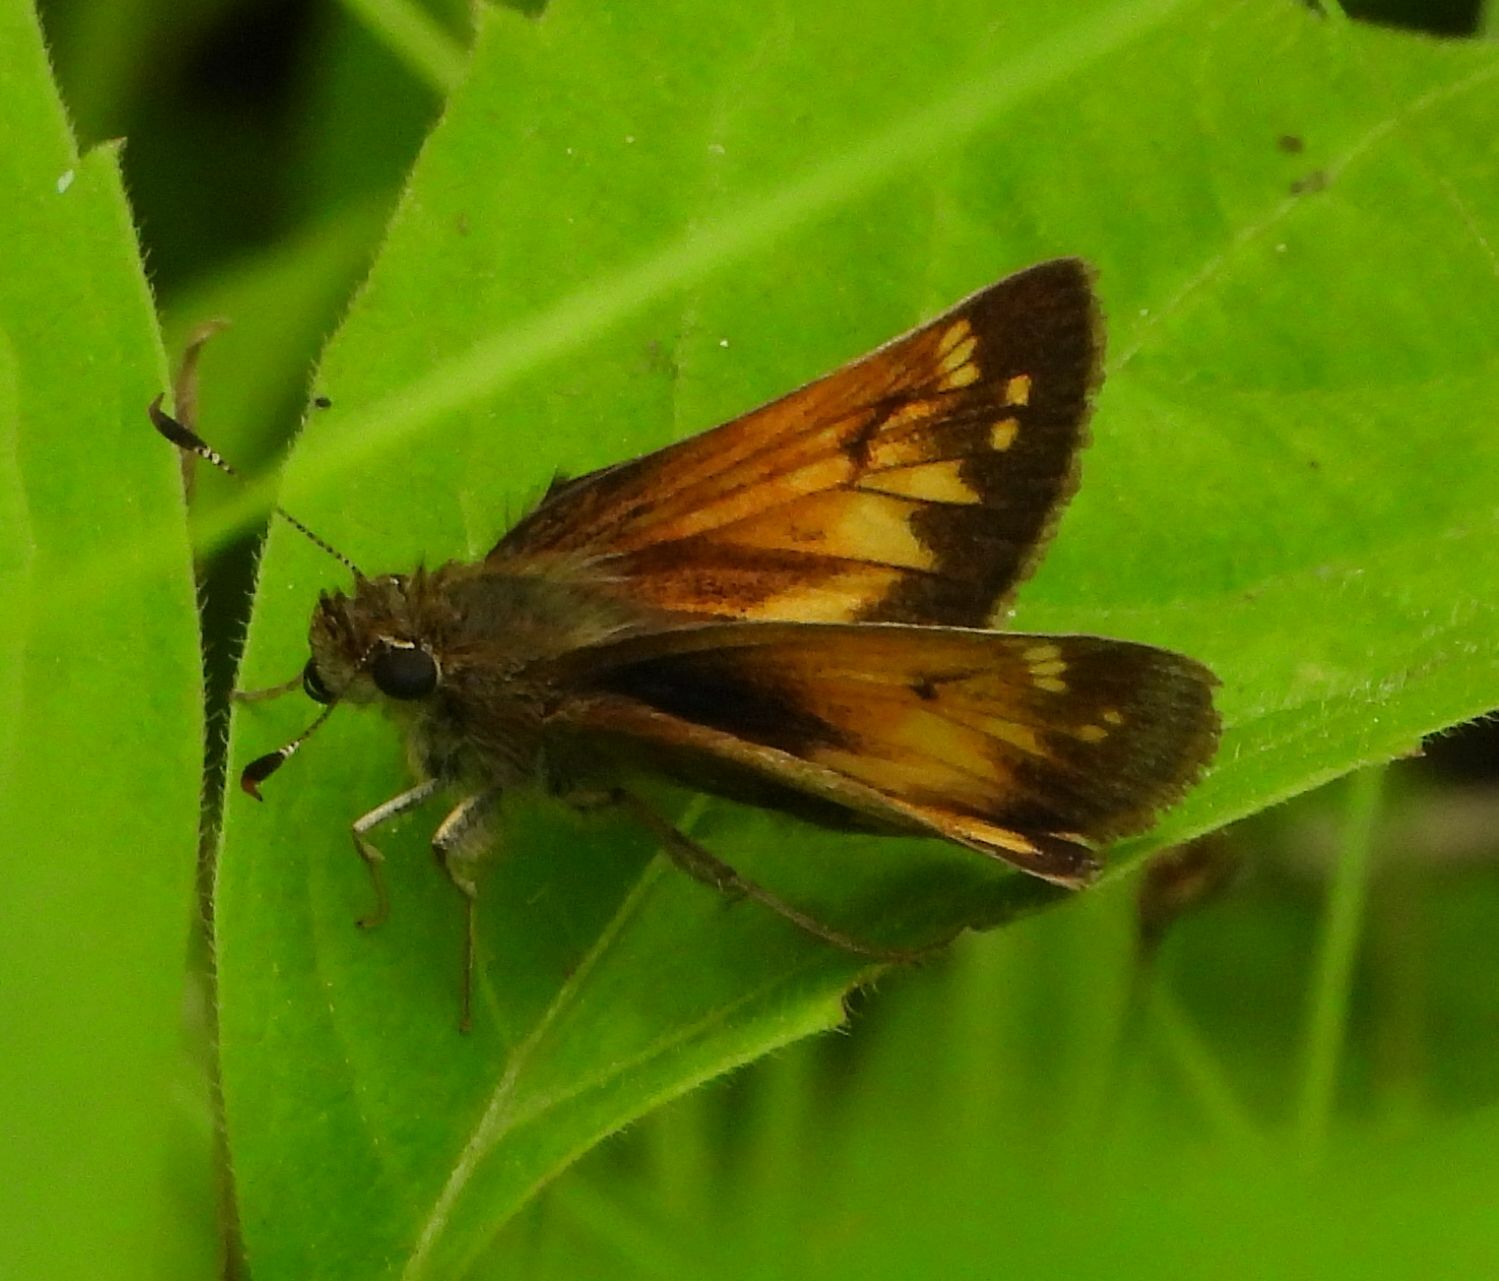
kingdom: Animalia
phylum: Arthropoda
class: Insecta
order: Lepidoptera
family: Hesperiidae
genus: Lon
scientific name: Lon hobomok
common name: Hobomok skipper
